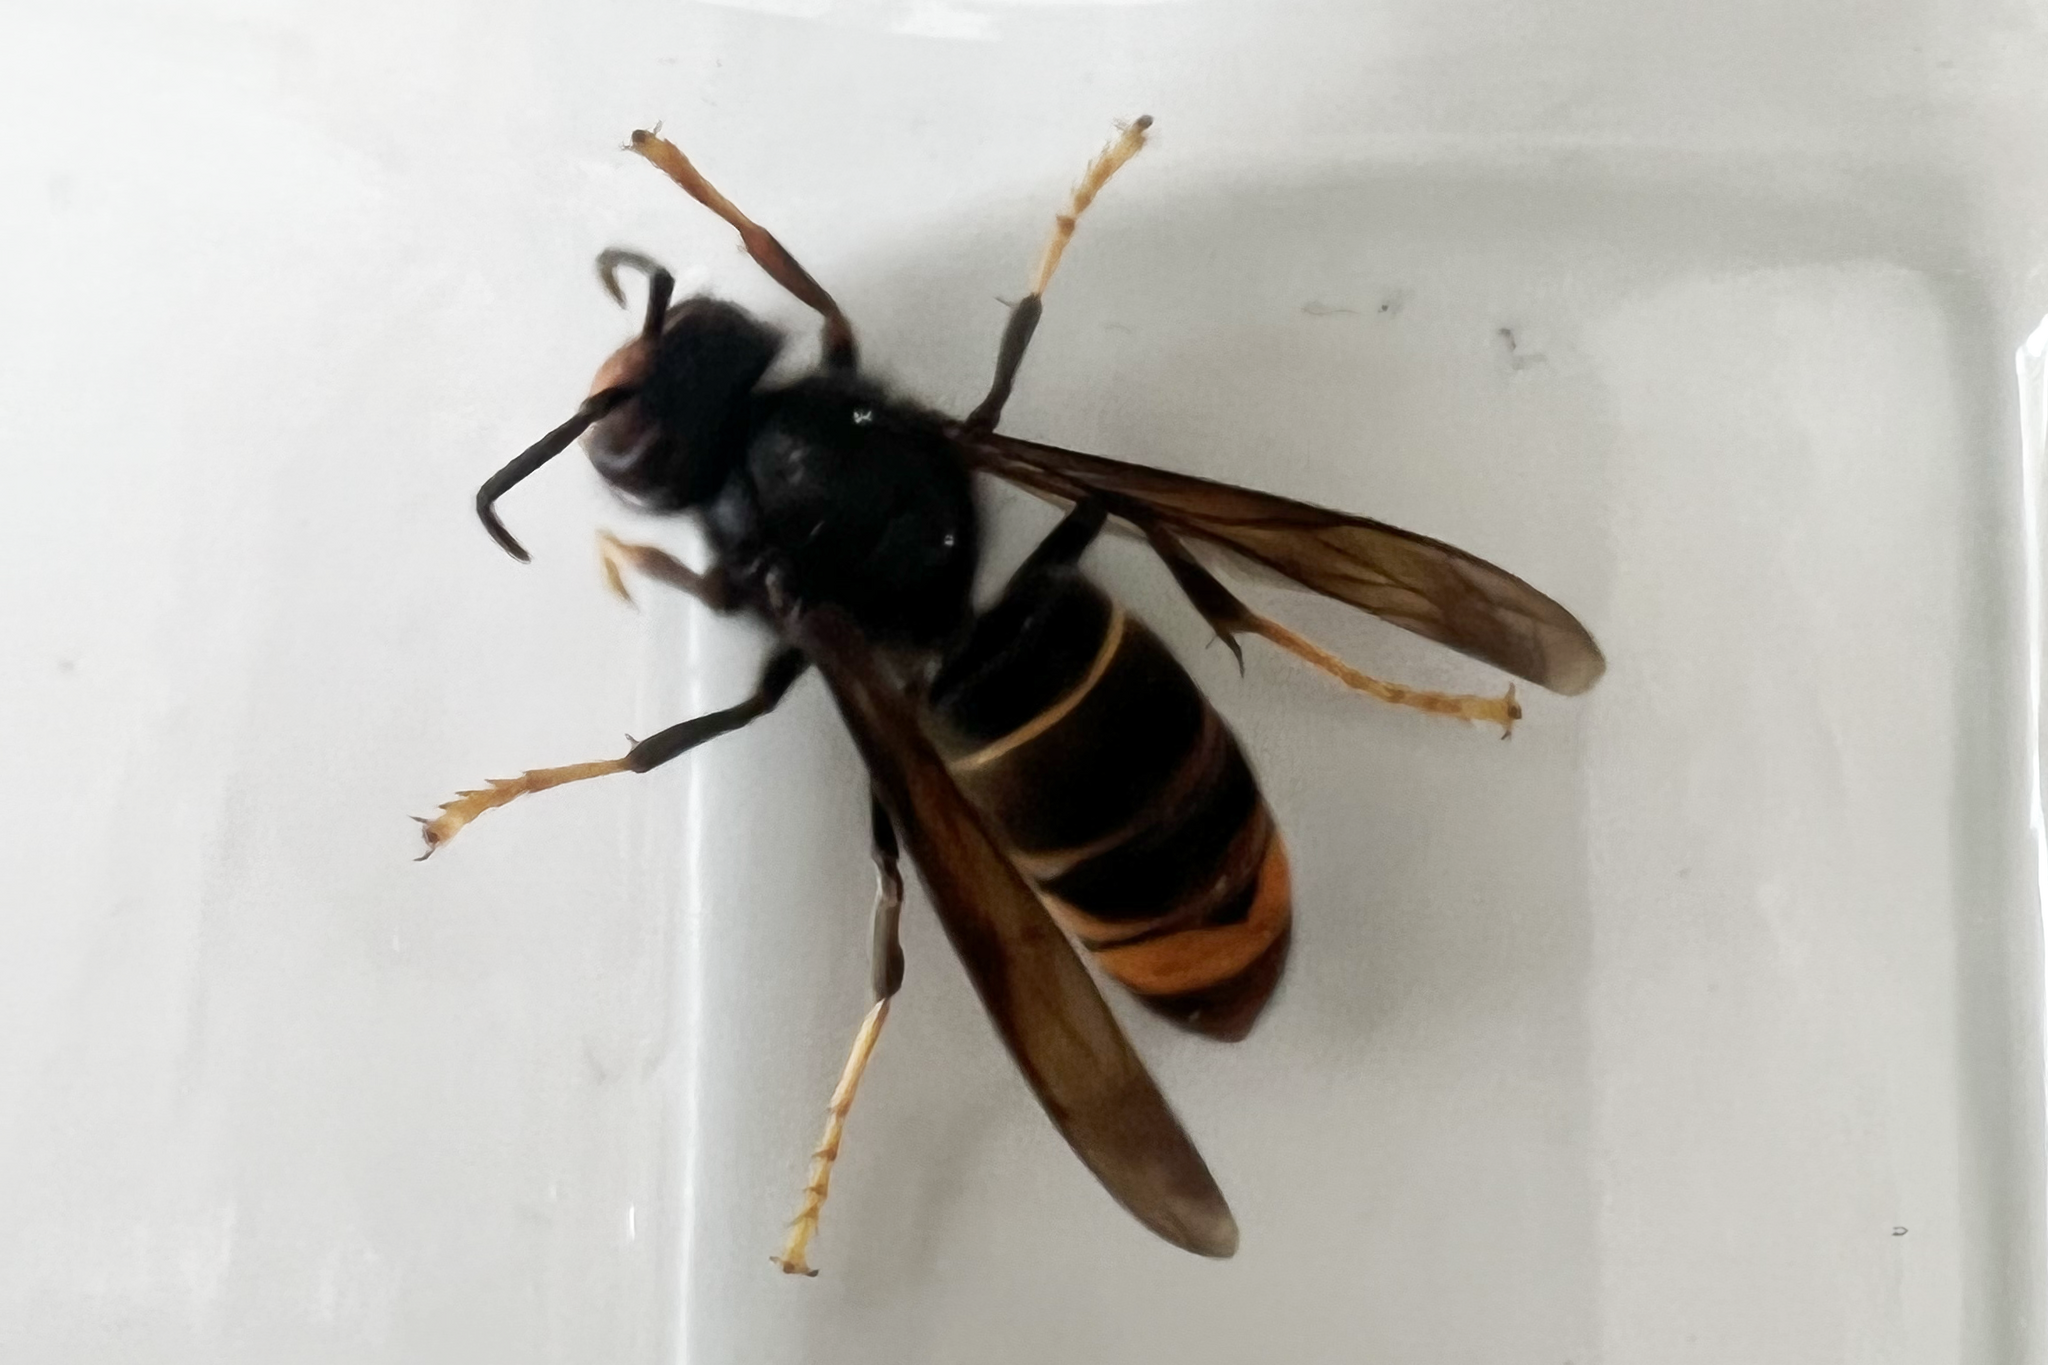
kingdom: Animalia
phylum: Arthropoda
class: Insecta
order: Hymenoptera
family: Vespidae
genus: Vespa
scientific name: Vespa velutina
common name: Asian hornet
